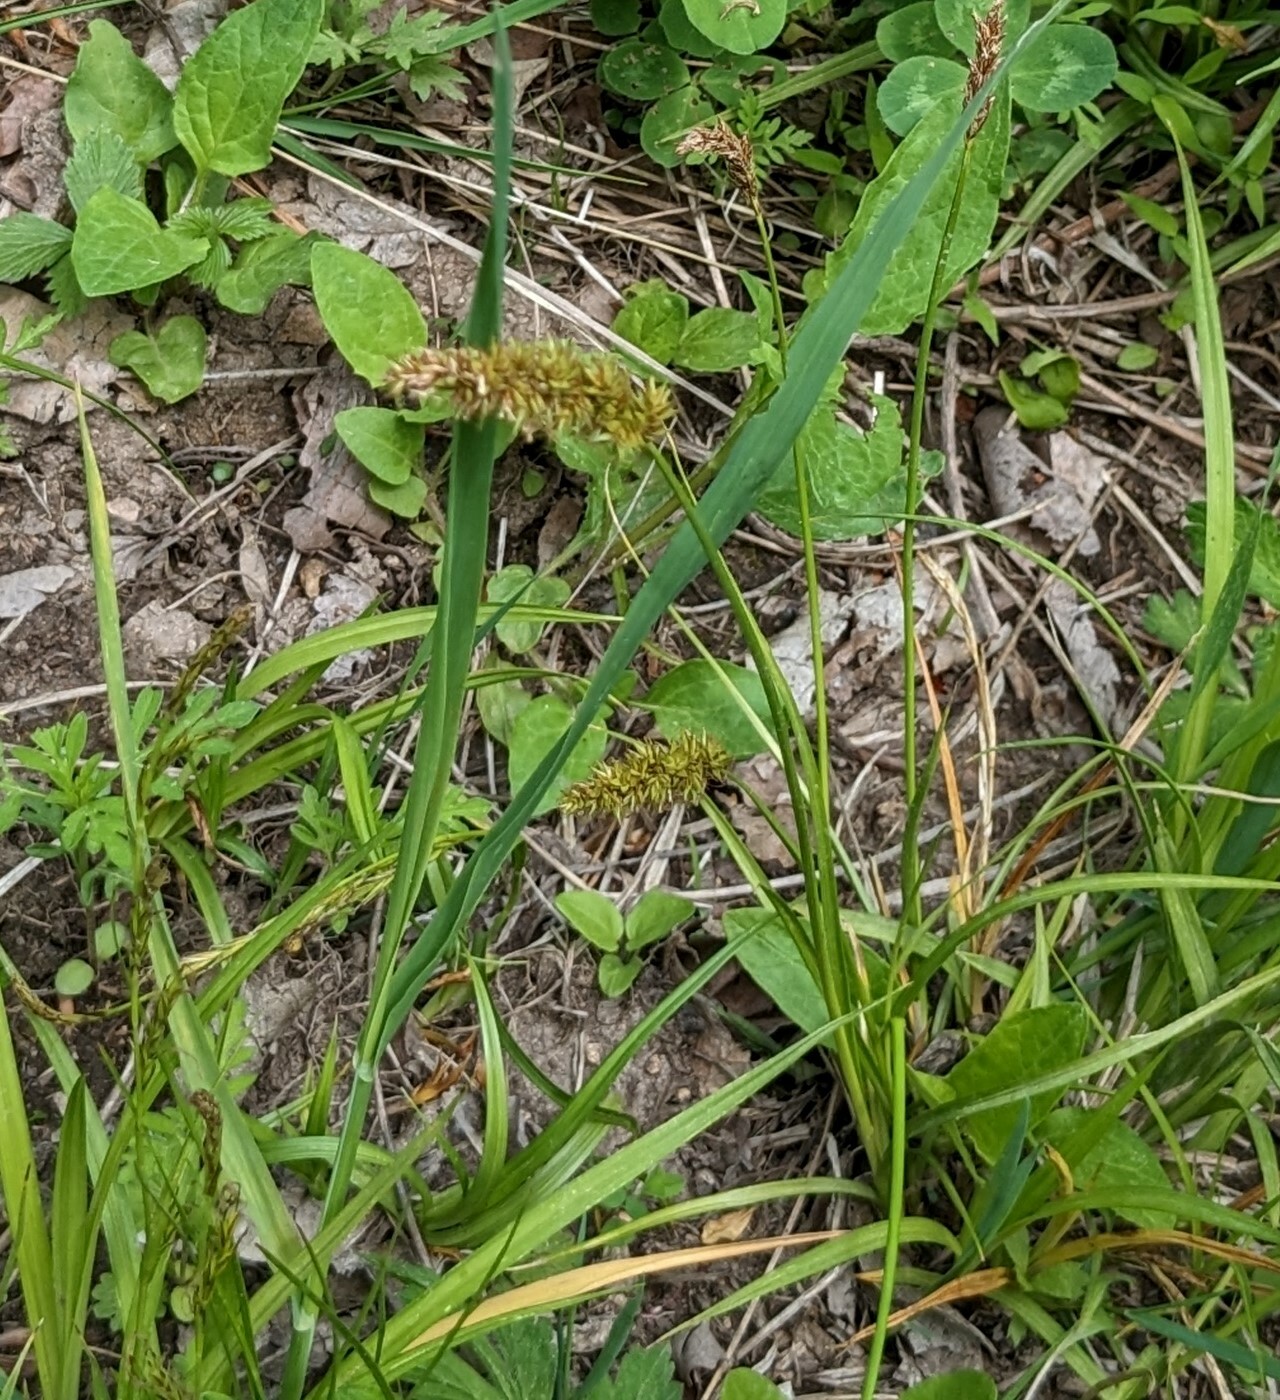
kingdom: Plantae
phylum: Tracheophyta
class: Liliopsida
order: Poales
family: Cyperaceae
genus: Carex
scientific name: Carex laevissima
